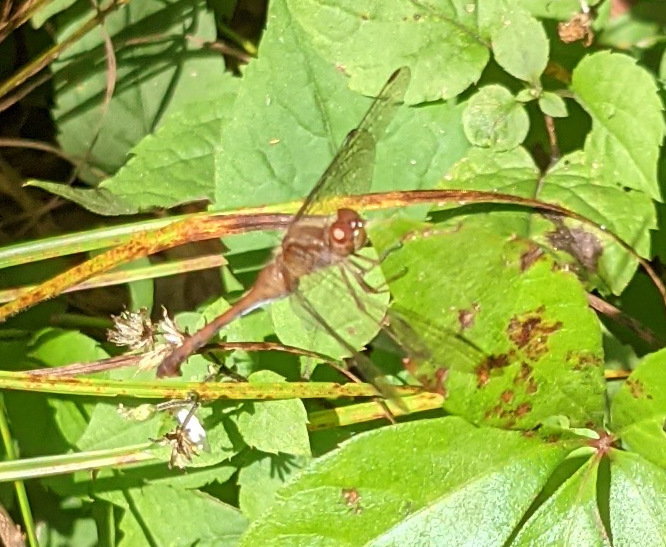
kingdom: Animalia
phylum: Arthropoda
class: Insecta
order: Odonata
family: Libellulidae
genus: Sympetrum
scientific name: Sympetrum vicinum
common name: Autumn meadowhawk
